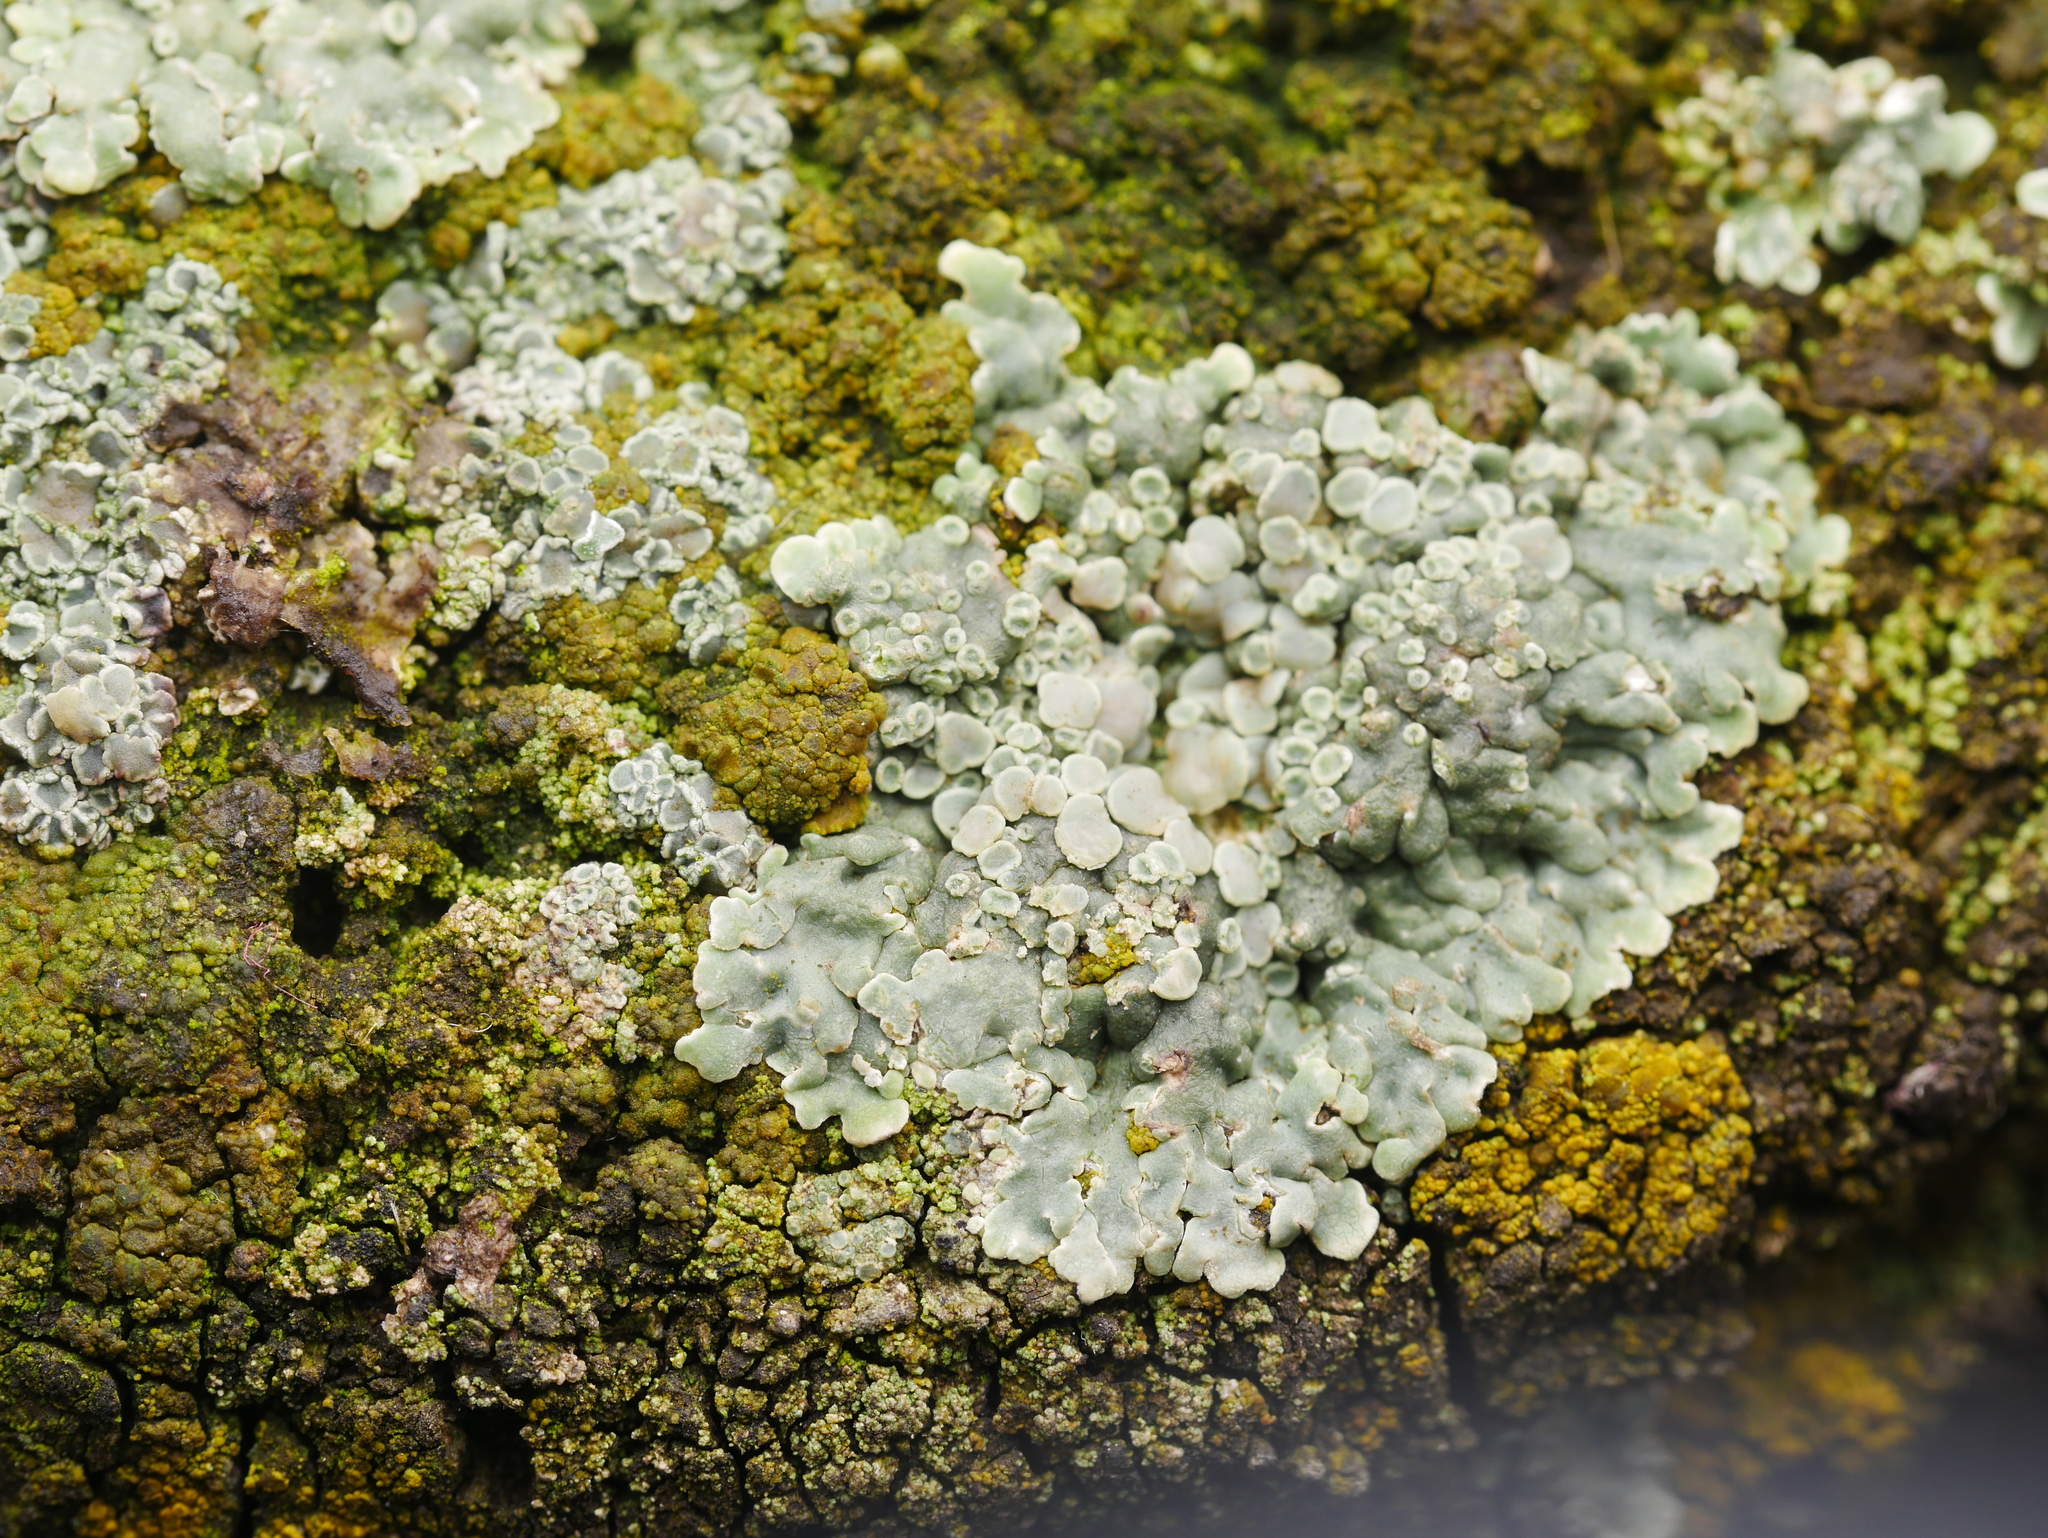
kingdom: Fungi
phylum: Ascomycota
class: Lecanoromycetes
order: Lecanorales
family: Lecanoraceae
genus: Protoparmeliopsis
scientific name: Protoparmeliopsis muralis
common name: Stonewall rim lichen
